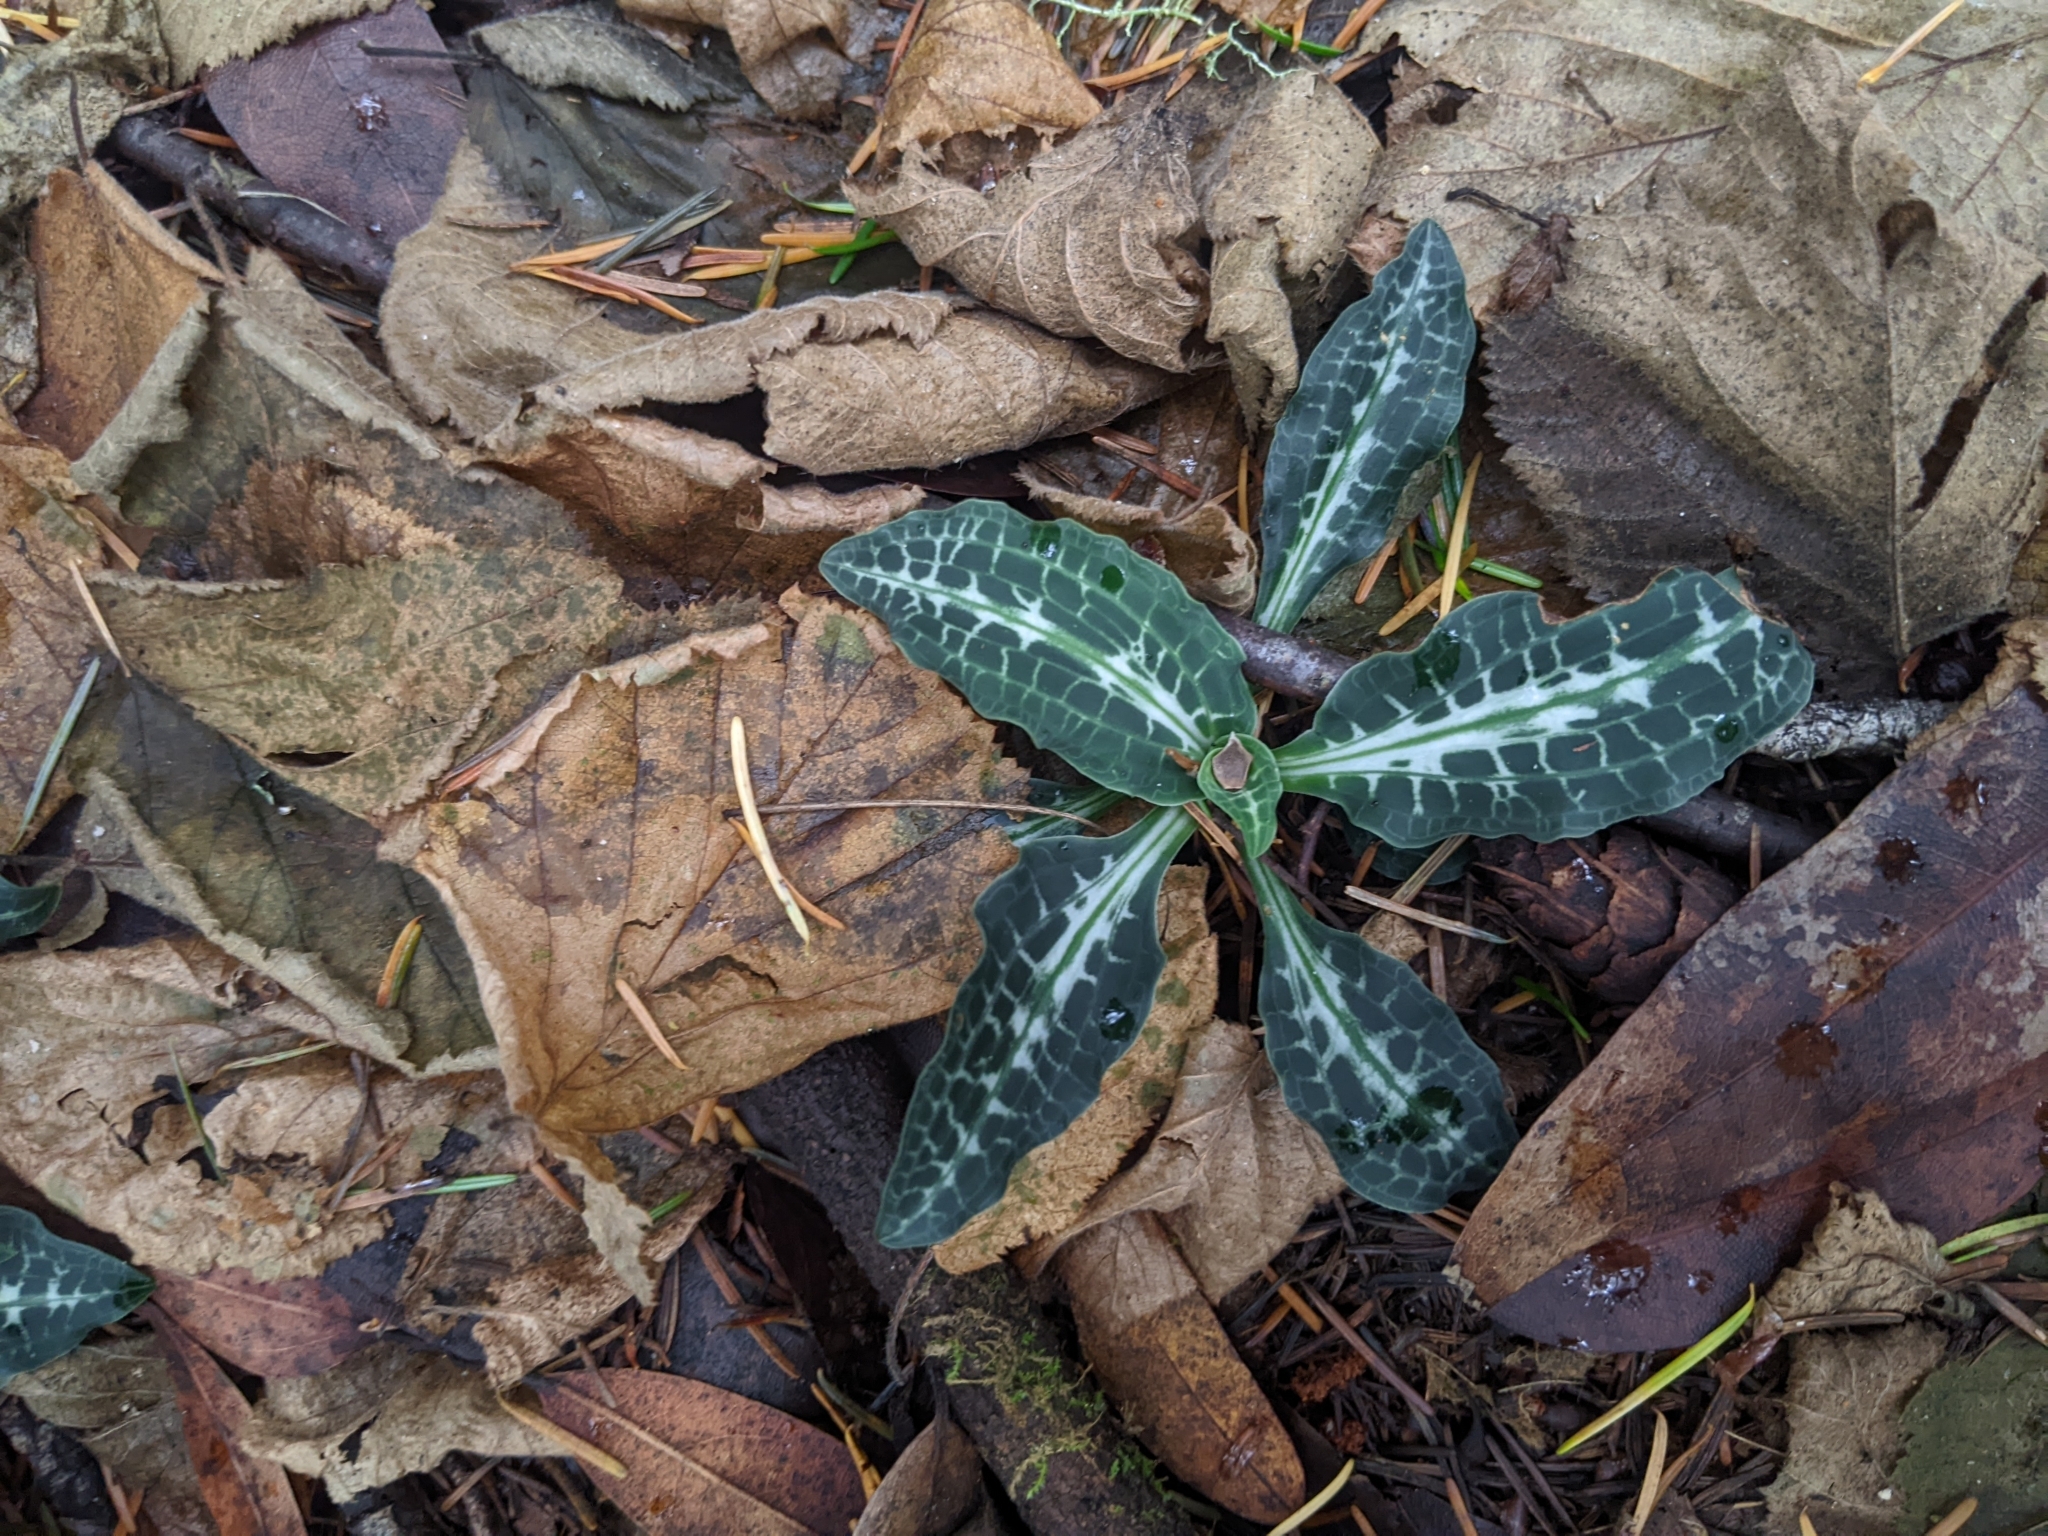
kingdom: Plantae
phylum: Tracheophyta
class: Liliopsida
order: Asparagales
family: Orchidaceae
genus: Goodyera
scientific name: Goodyera oblongifolia
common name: Giant rattlesnake-plantain
